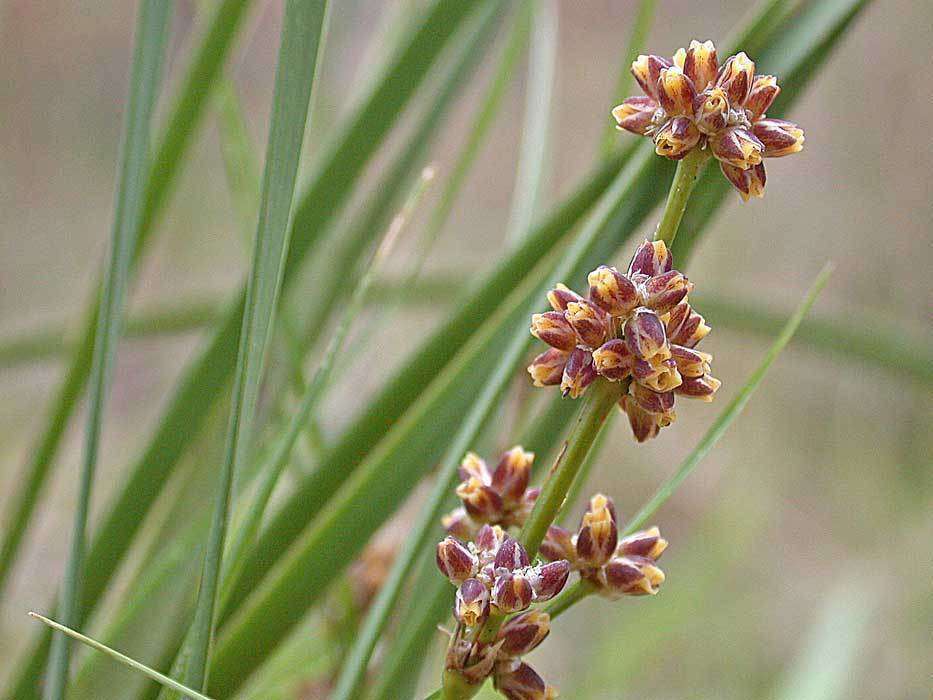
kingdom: Plantae
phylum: Tracheophyta
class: Liliopsida
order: Asparagales
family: Asparagaceae
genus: Lomandra
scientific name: Lomandra multiflora
